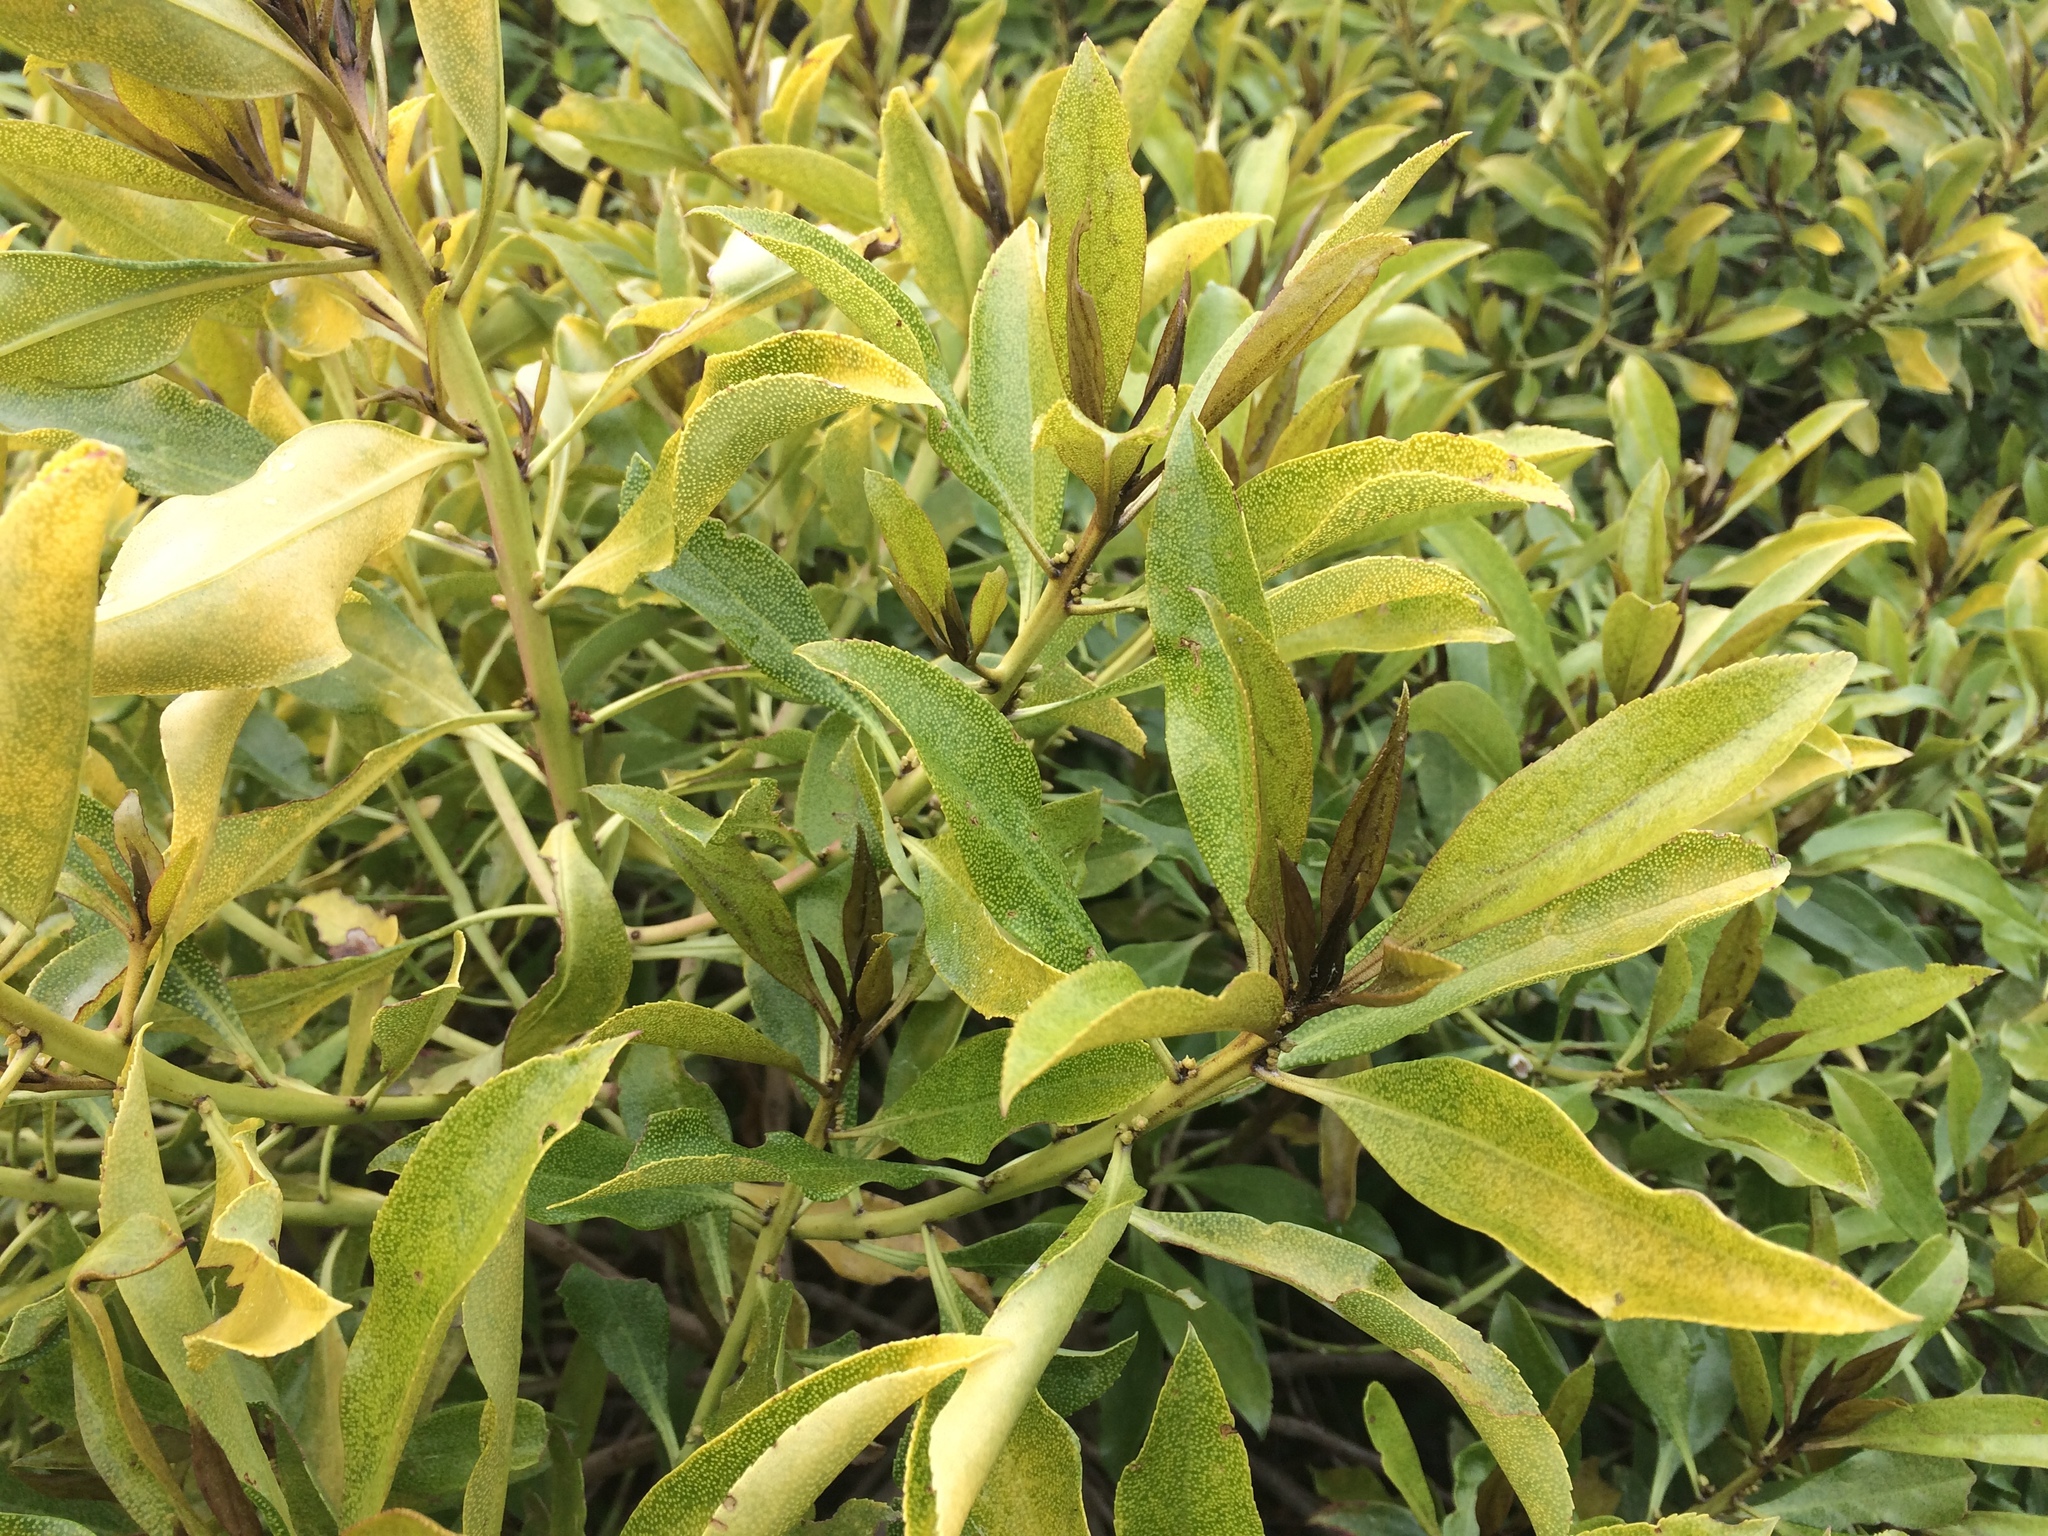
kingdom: Plantae
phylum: Tracheophyta
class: Magnoliopsida
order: Lamiales
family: Scrophulariaceae
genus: Myoporum
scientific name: Myoporum laetum
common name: Ngaio tree
